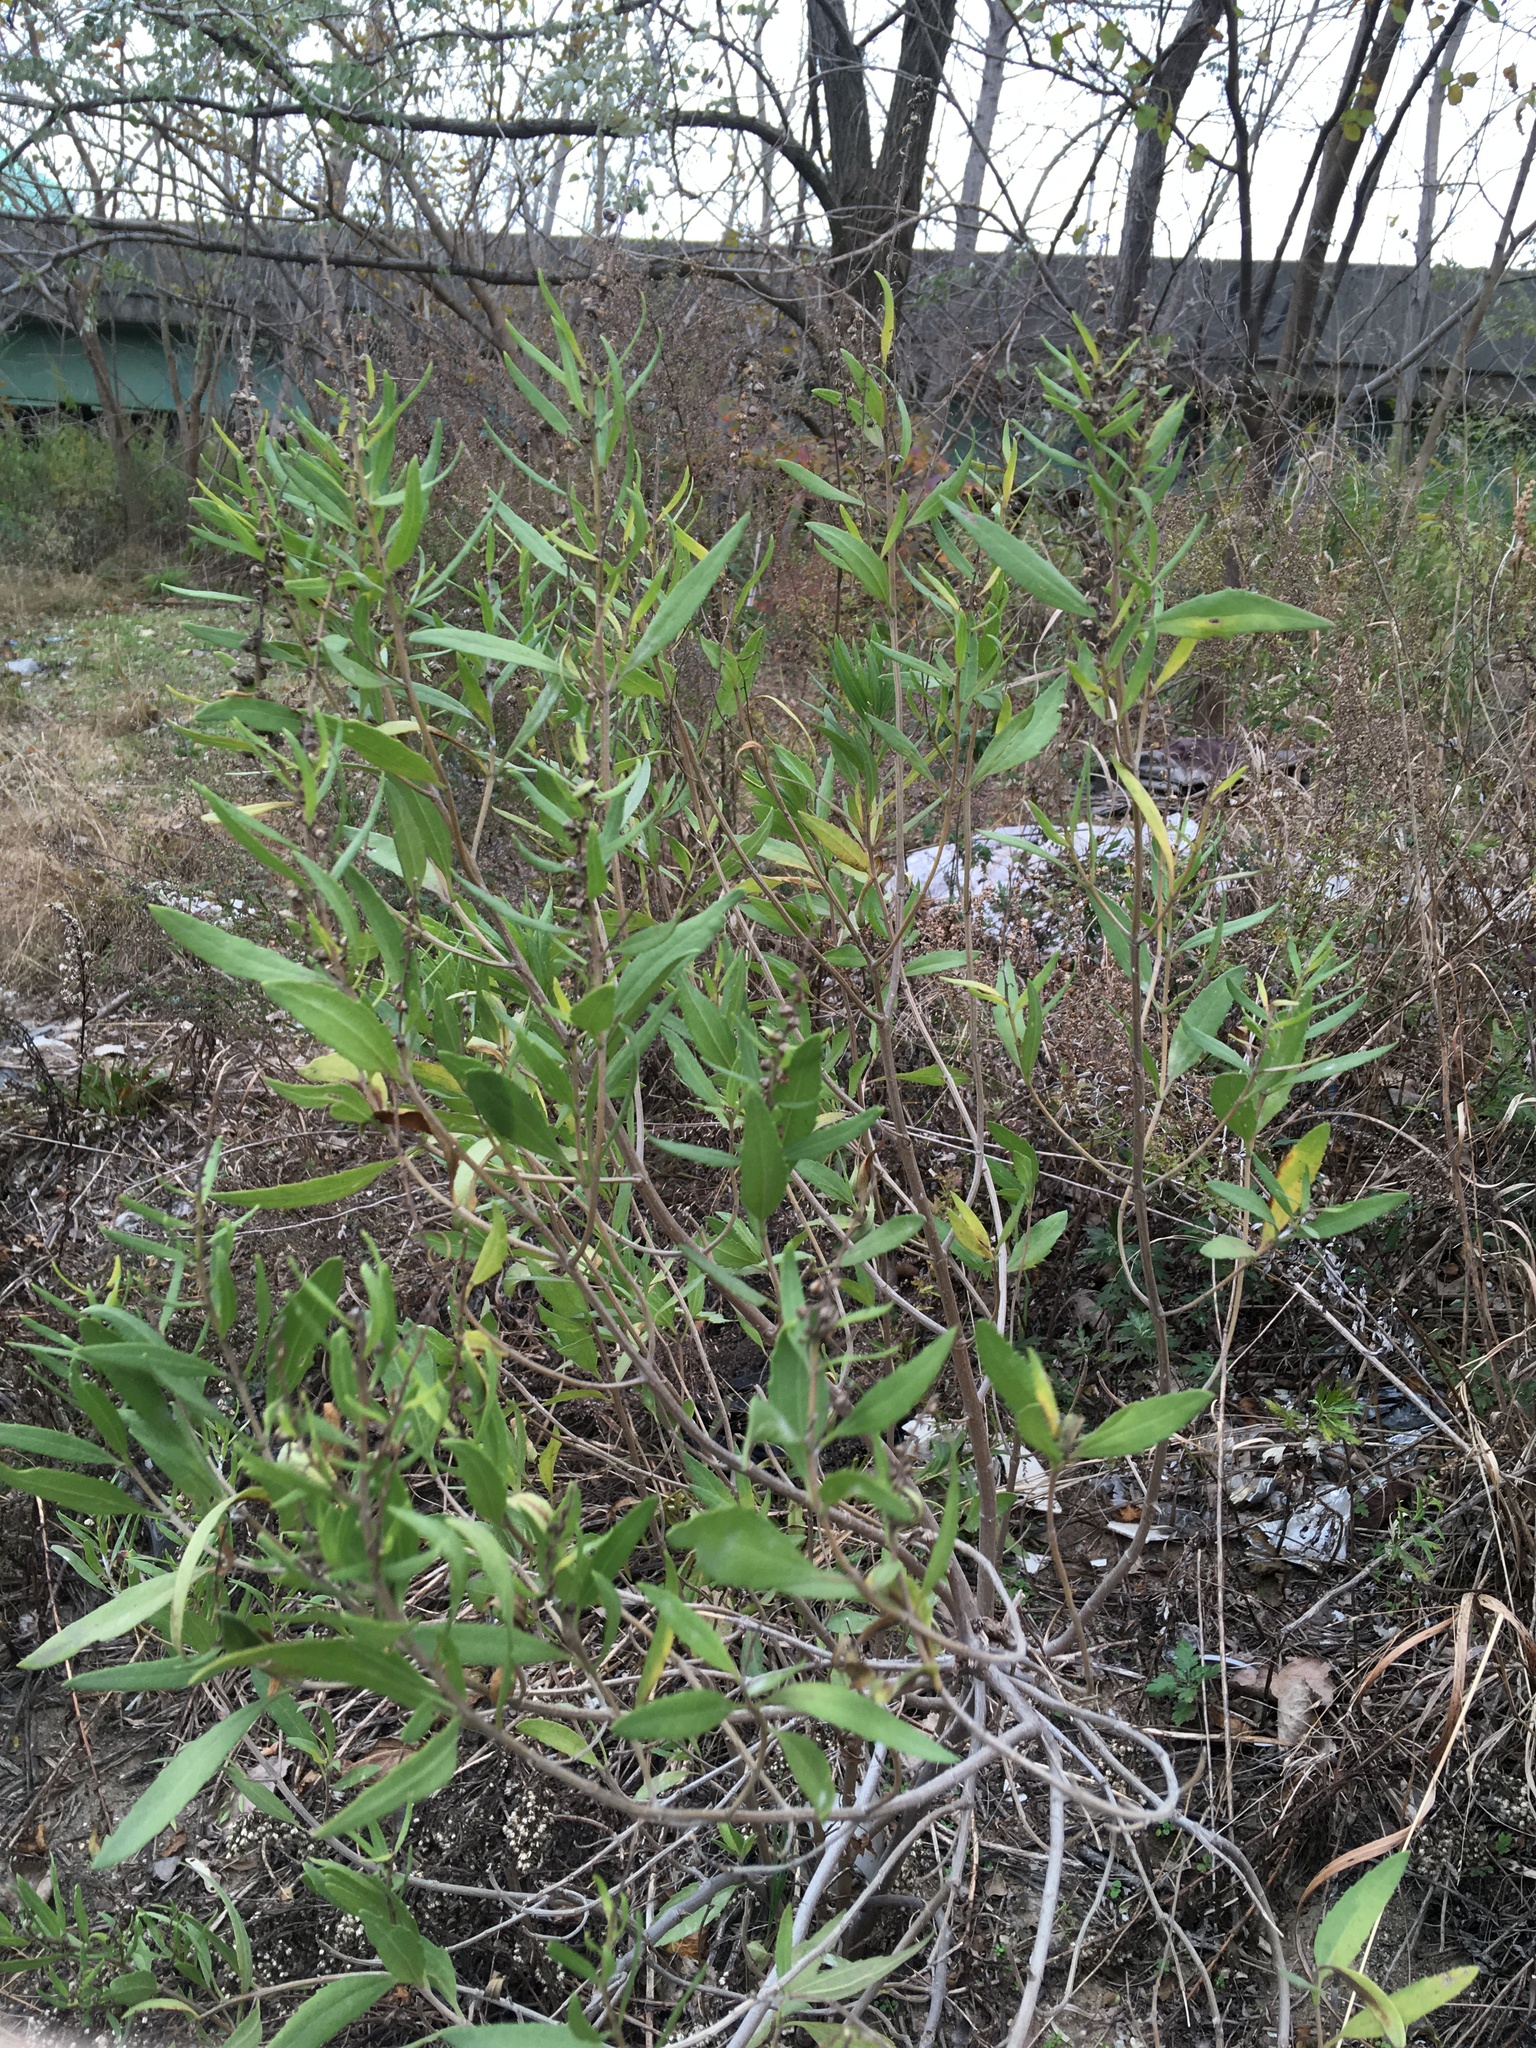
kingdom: Plantae
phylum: Tracheophyta
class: Magnoliopsida
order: Asterales
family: Asteraceae
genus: Iva
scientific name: Iva frutescens
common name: Big-leaved marsh-elder
